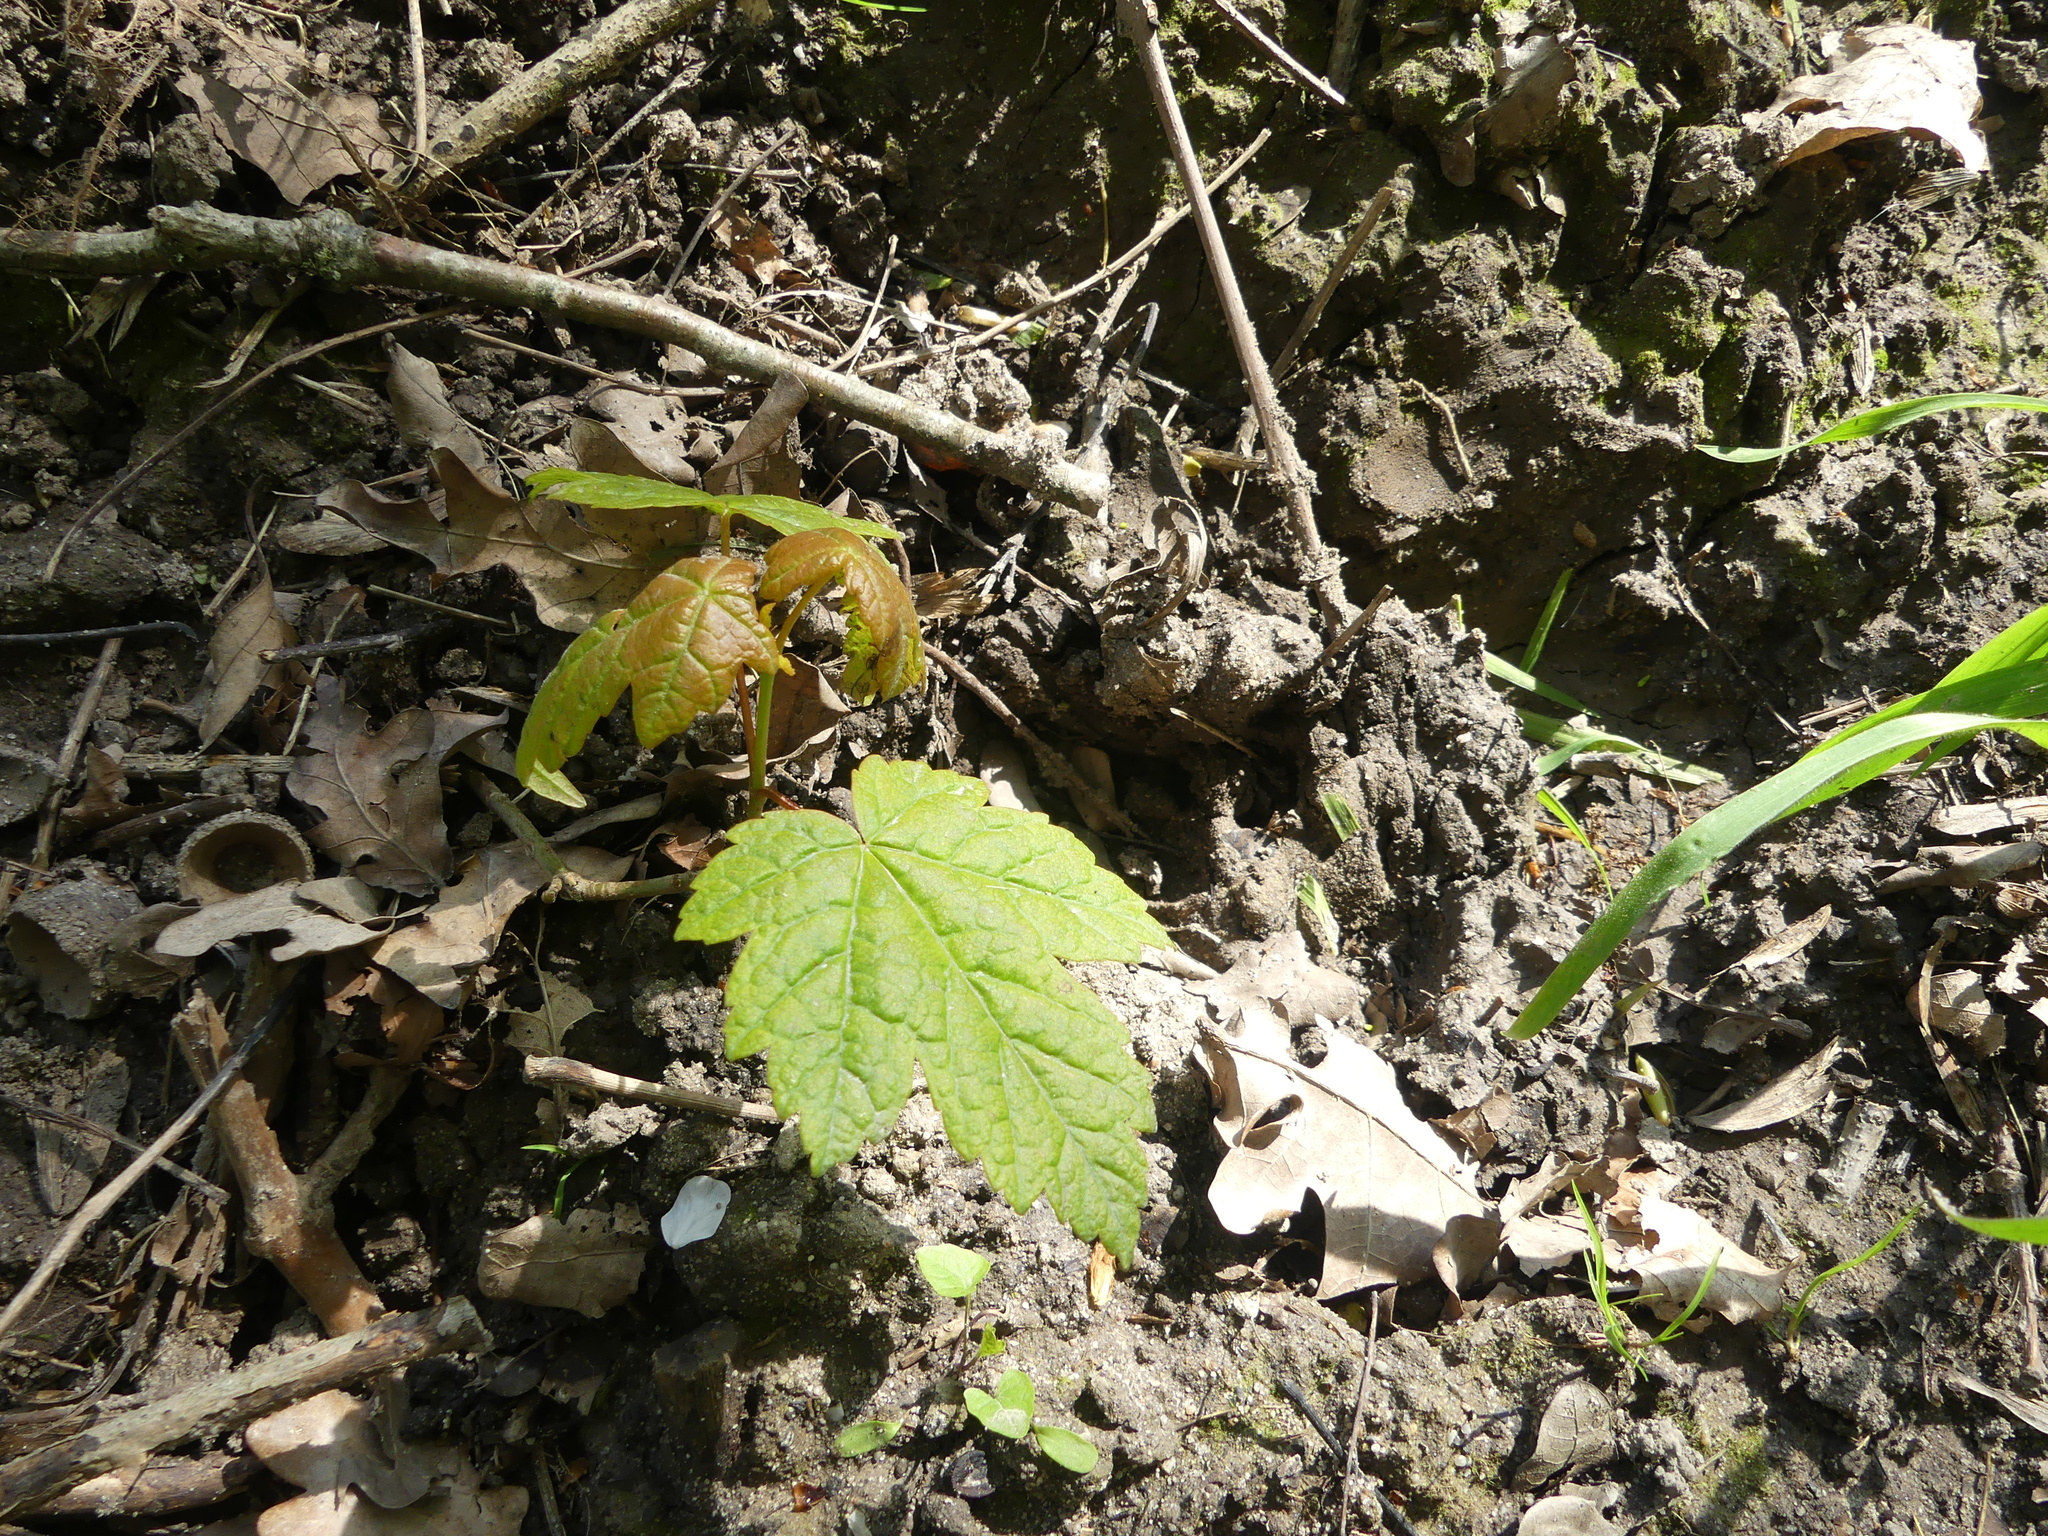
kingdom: Plantae
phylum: Tracheophyta
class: Magnoliopsida
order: Sapindales
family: Sapindaceae
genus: Acer
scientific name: Acer pseudoplatanus
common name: Sycamore
